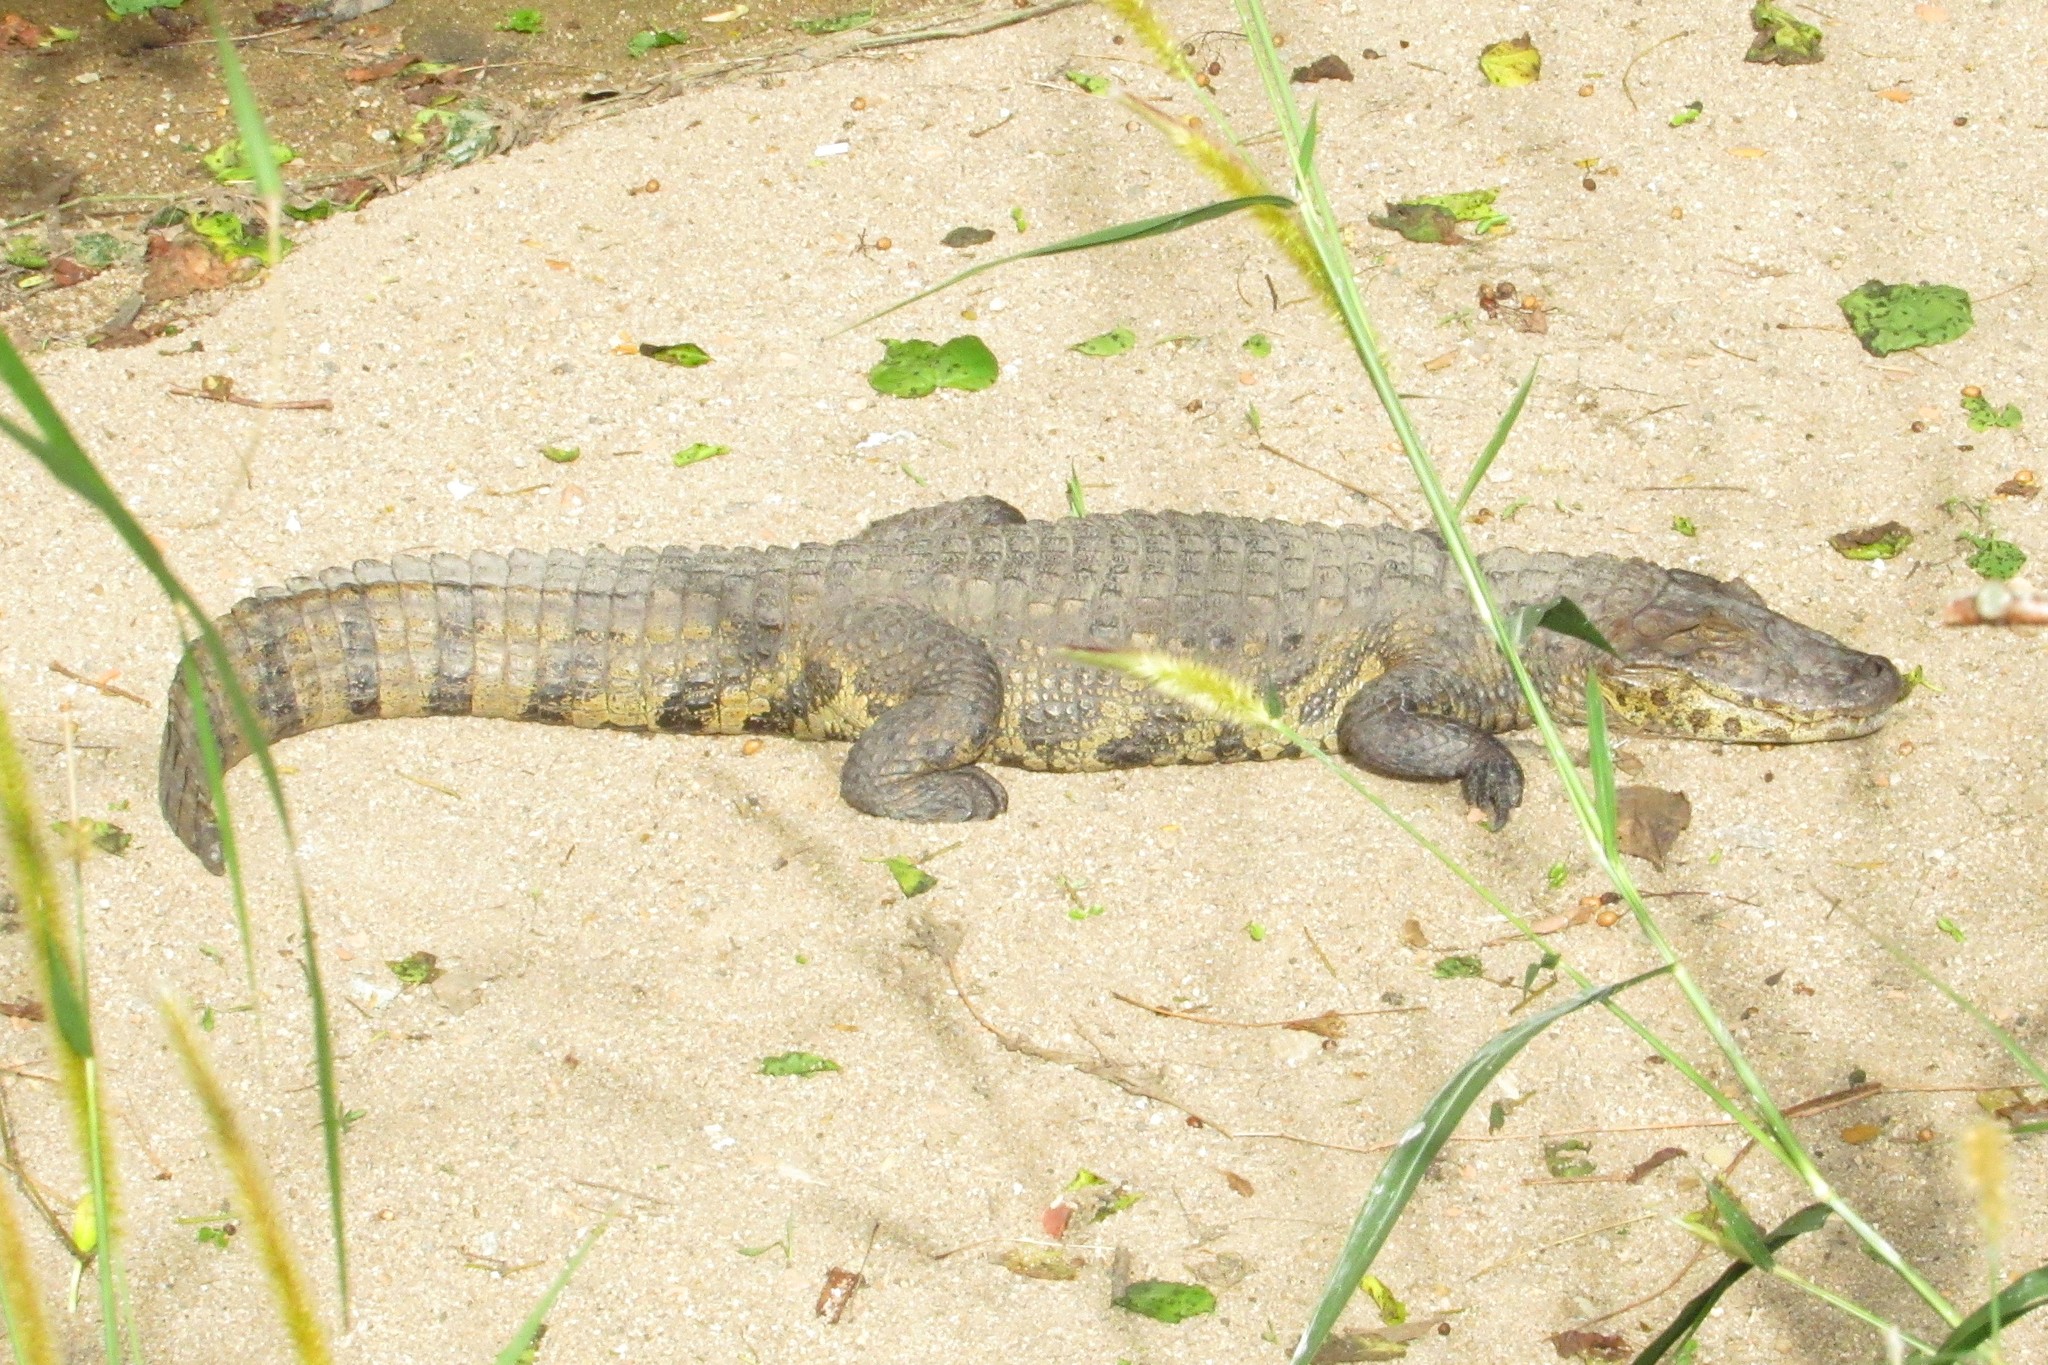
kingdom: Animalia
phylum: Chordata
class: Crocodylia
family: Alligatoridae
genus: Caiman
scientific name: Caiman latirostris
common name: Broad-snouted caiman
